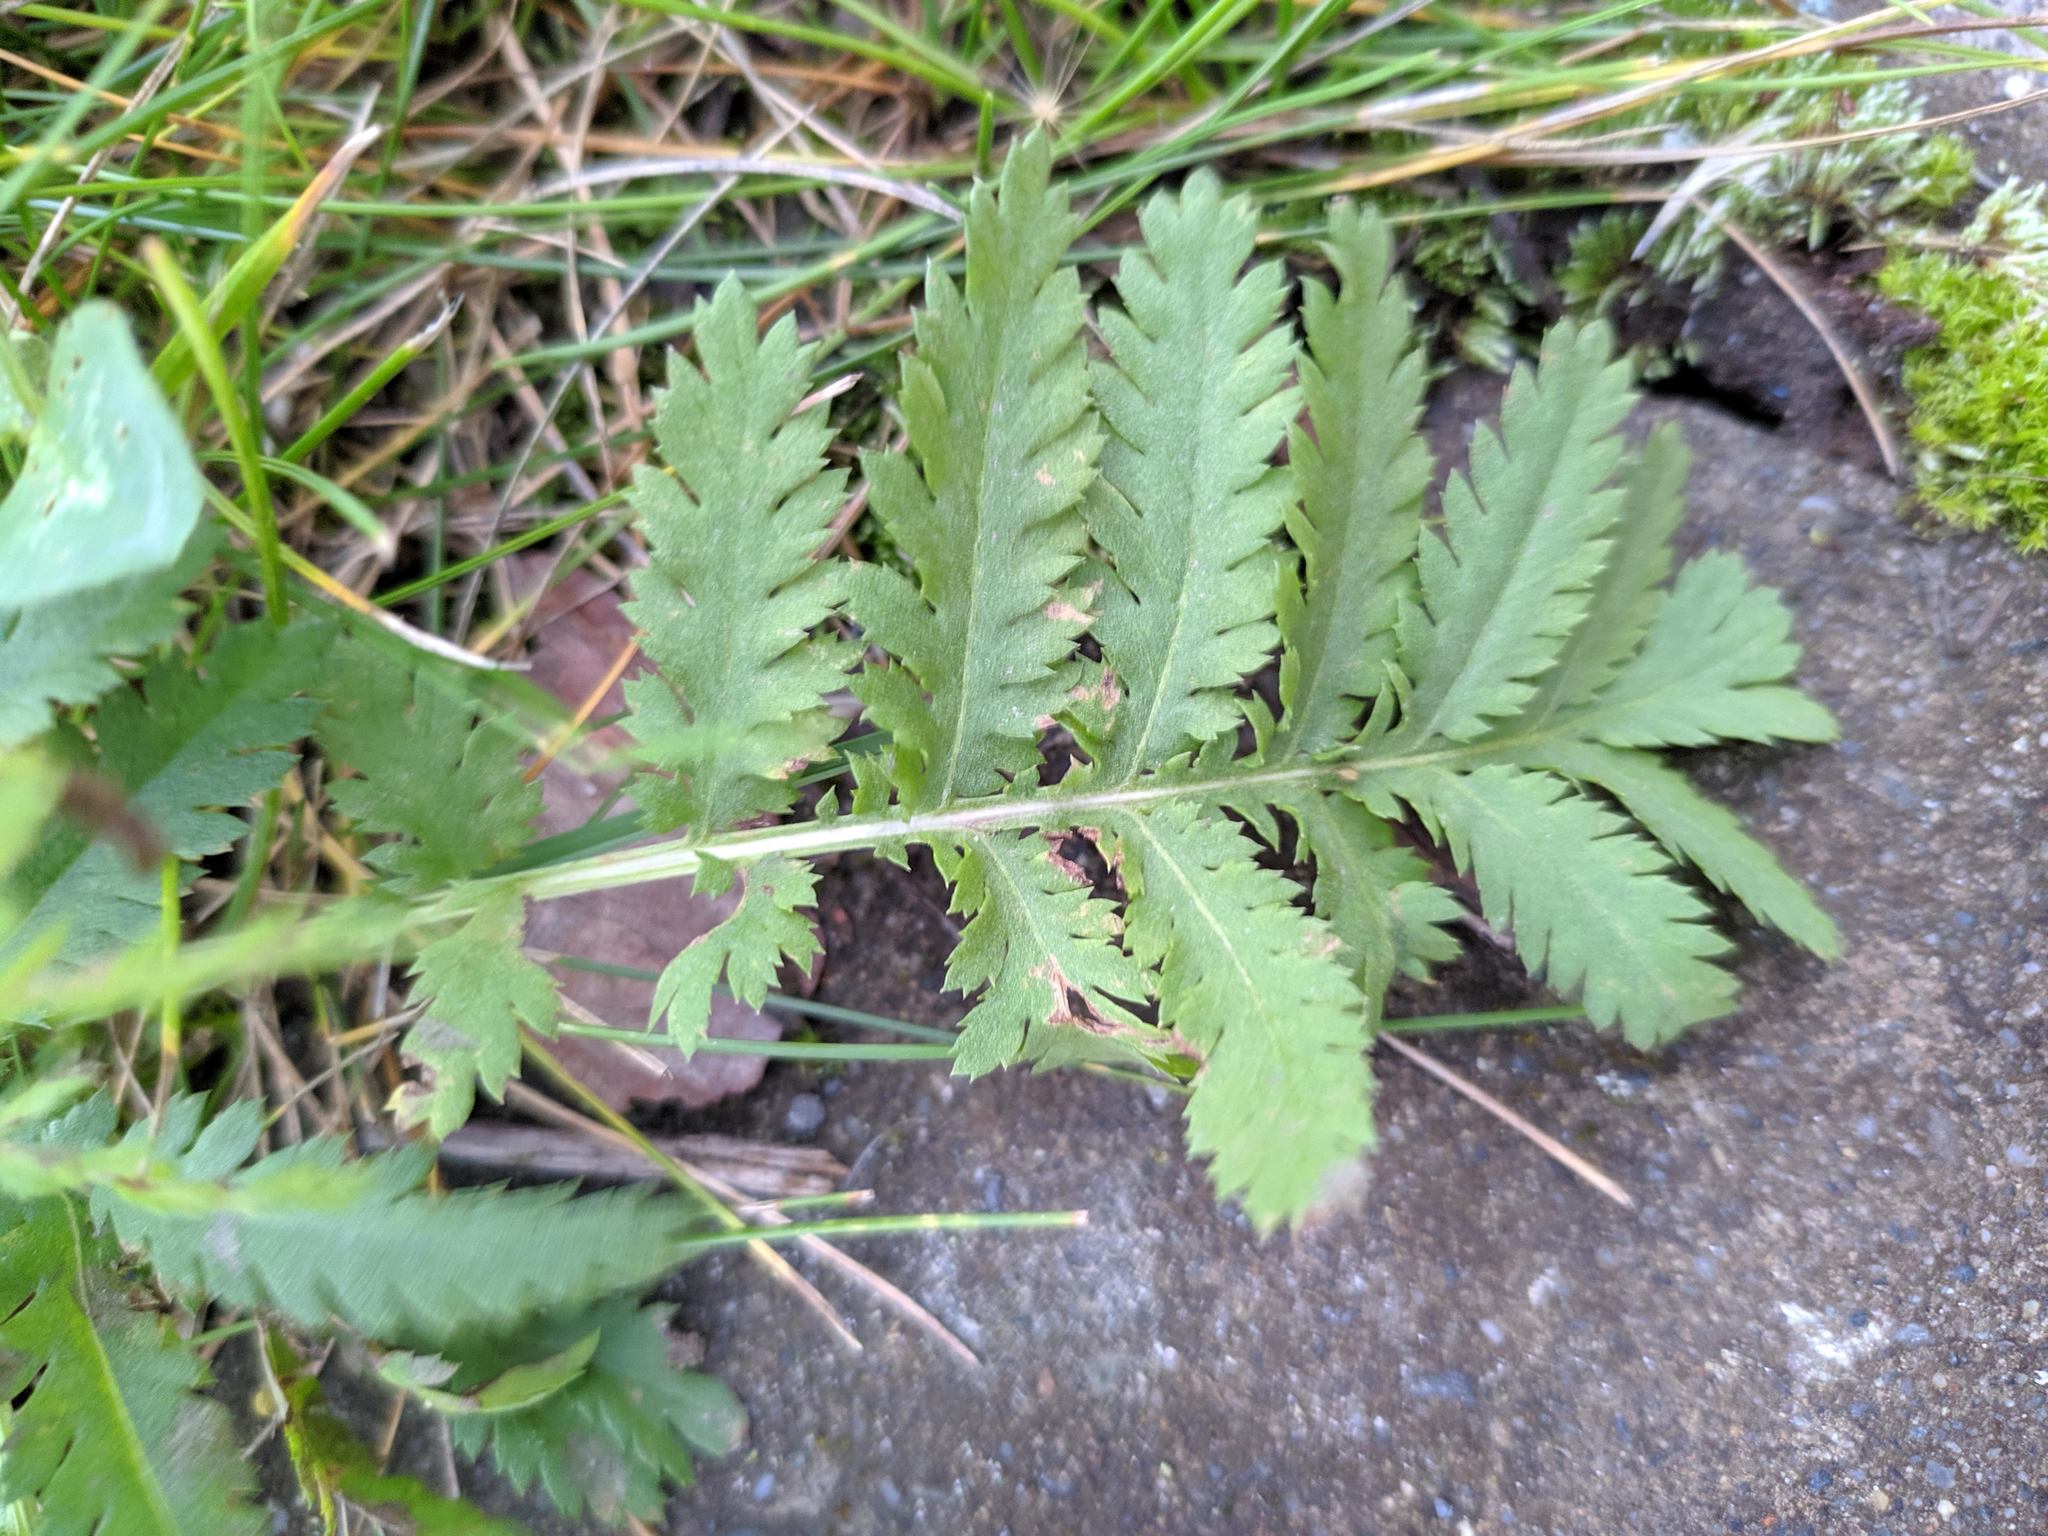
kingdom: Plantae
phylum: Tracheophyta
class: Magnoliopsida
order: Asterales
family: Asteraceae
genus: Tanacetum
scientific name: Tanacetum vulgare
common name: Common tansy
